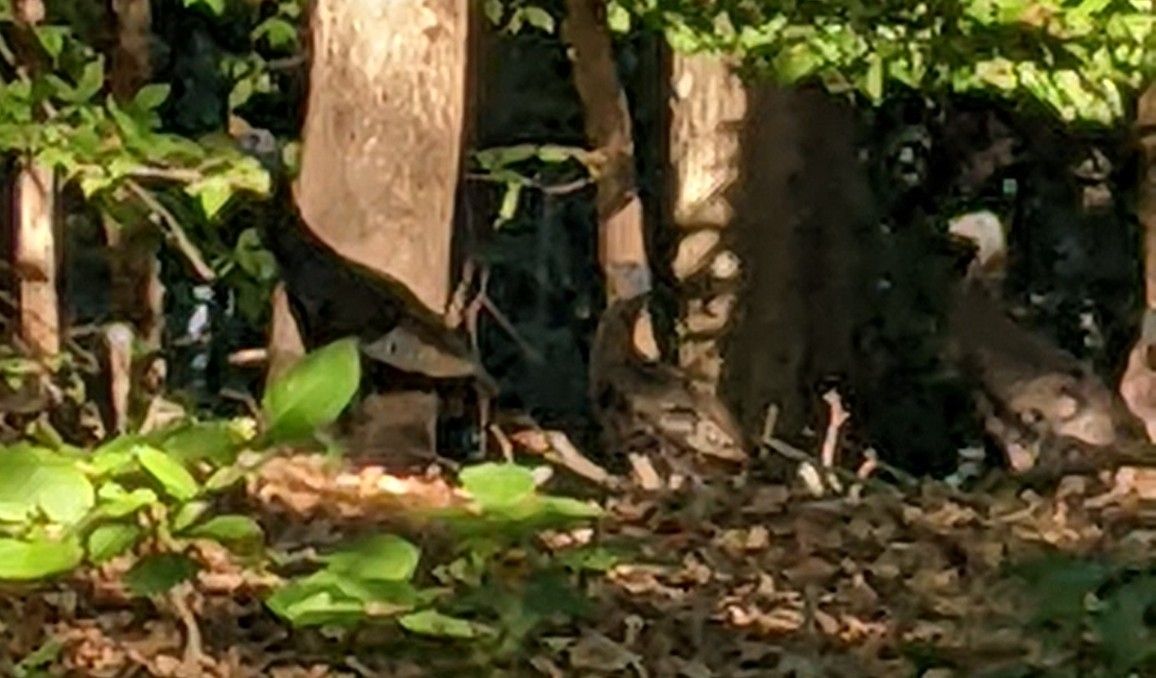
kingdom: Animalia
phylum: Chordata
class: Aves
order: Galliformes
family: Phasianidae
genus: Meleagris
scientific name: Meleagris gallopavo
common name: Wild turkey
